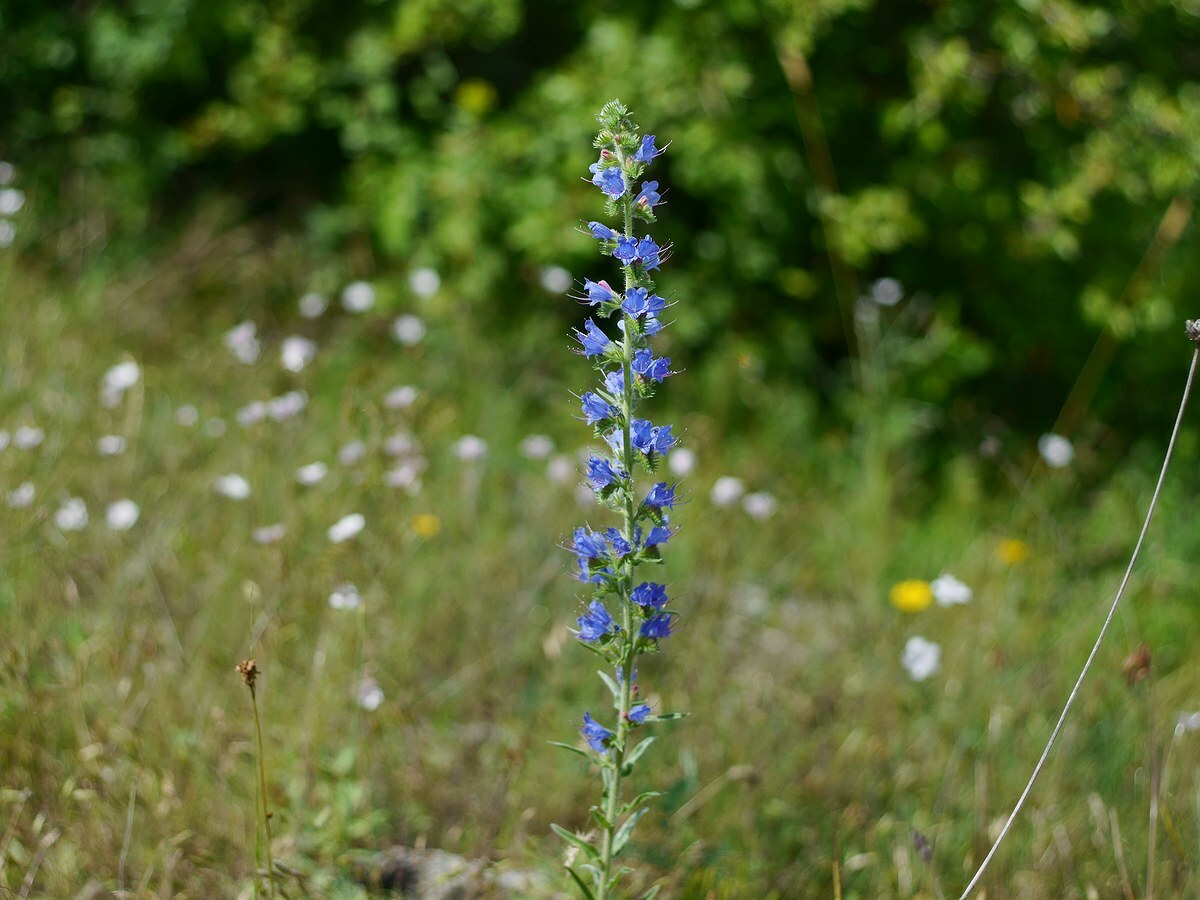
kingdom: Plantae
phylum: Tracheophyta
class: Magnoliopsida
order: Boraginales
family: Boraginaceae
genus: Echium
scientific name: Echium vulgare
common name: Common viper's bugloss
